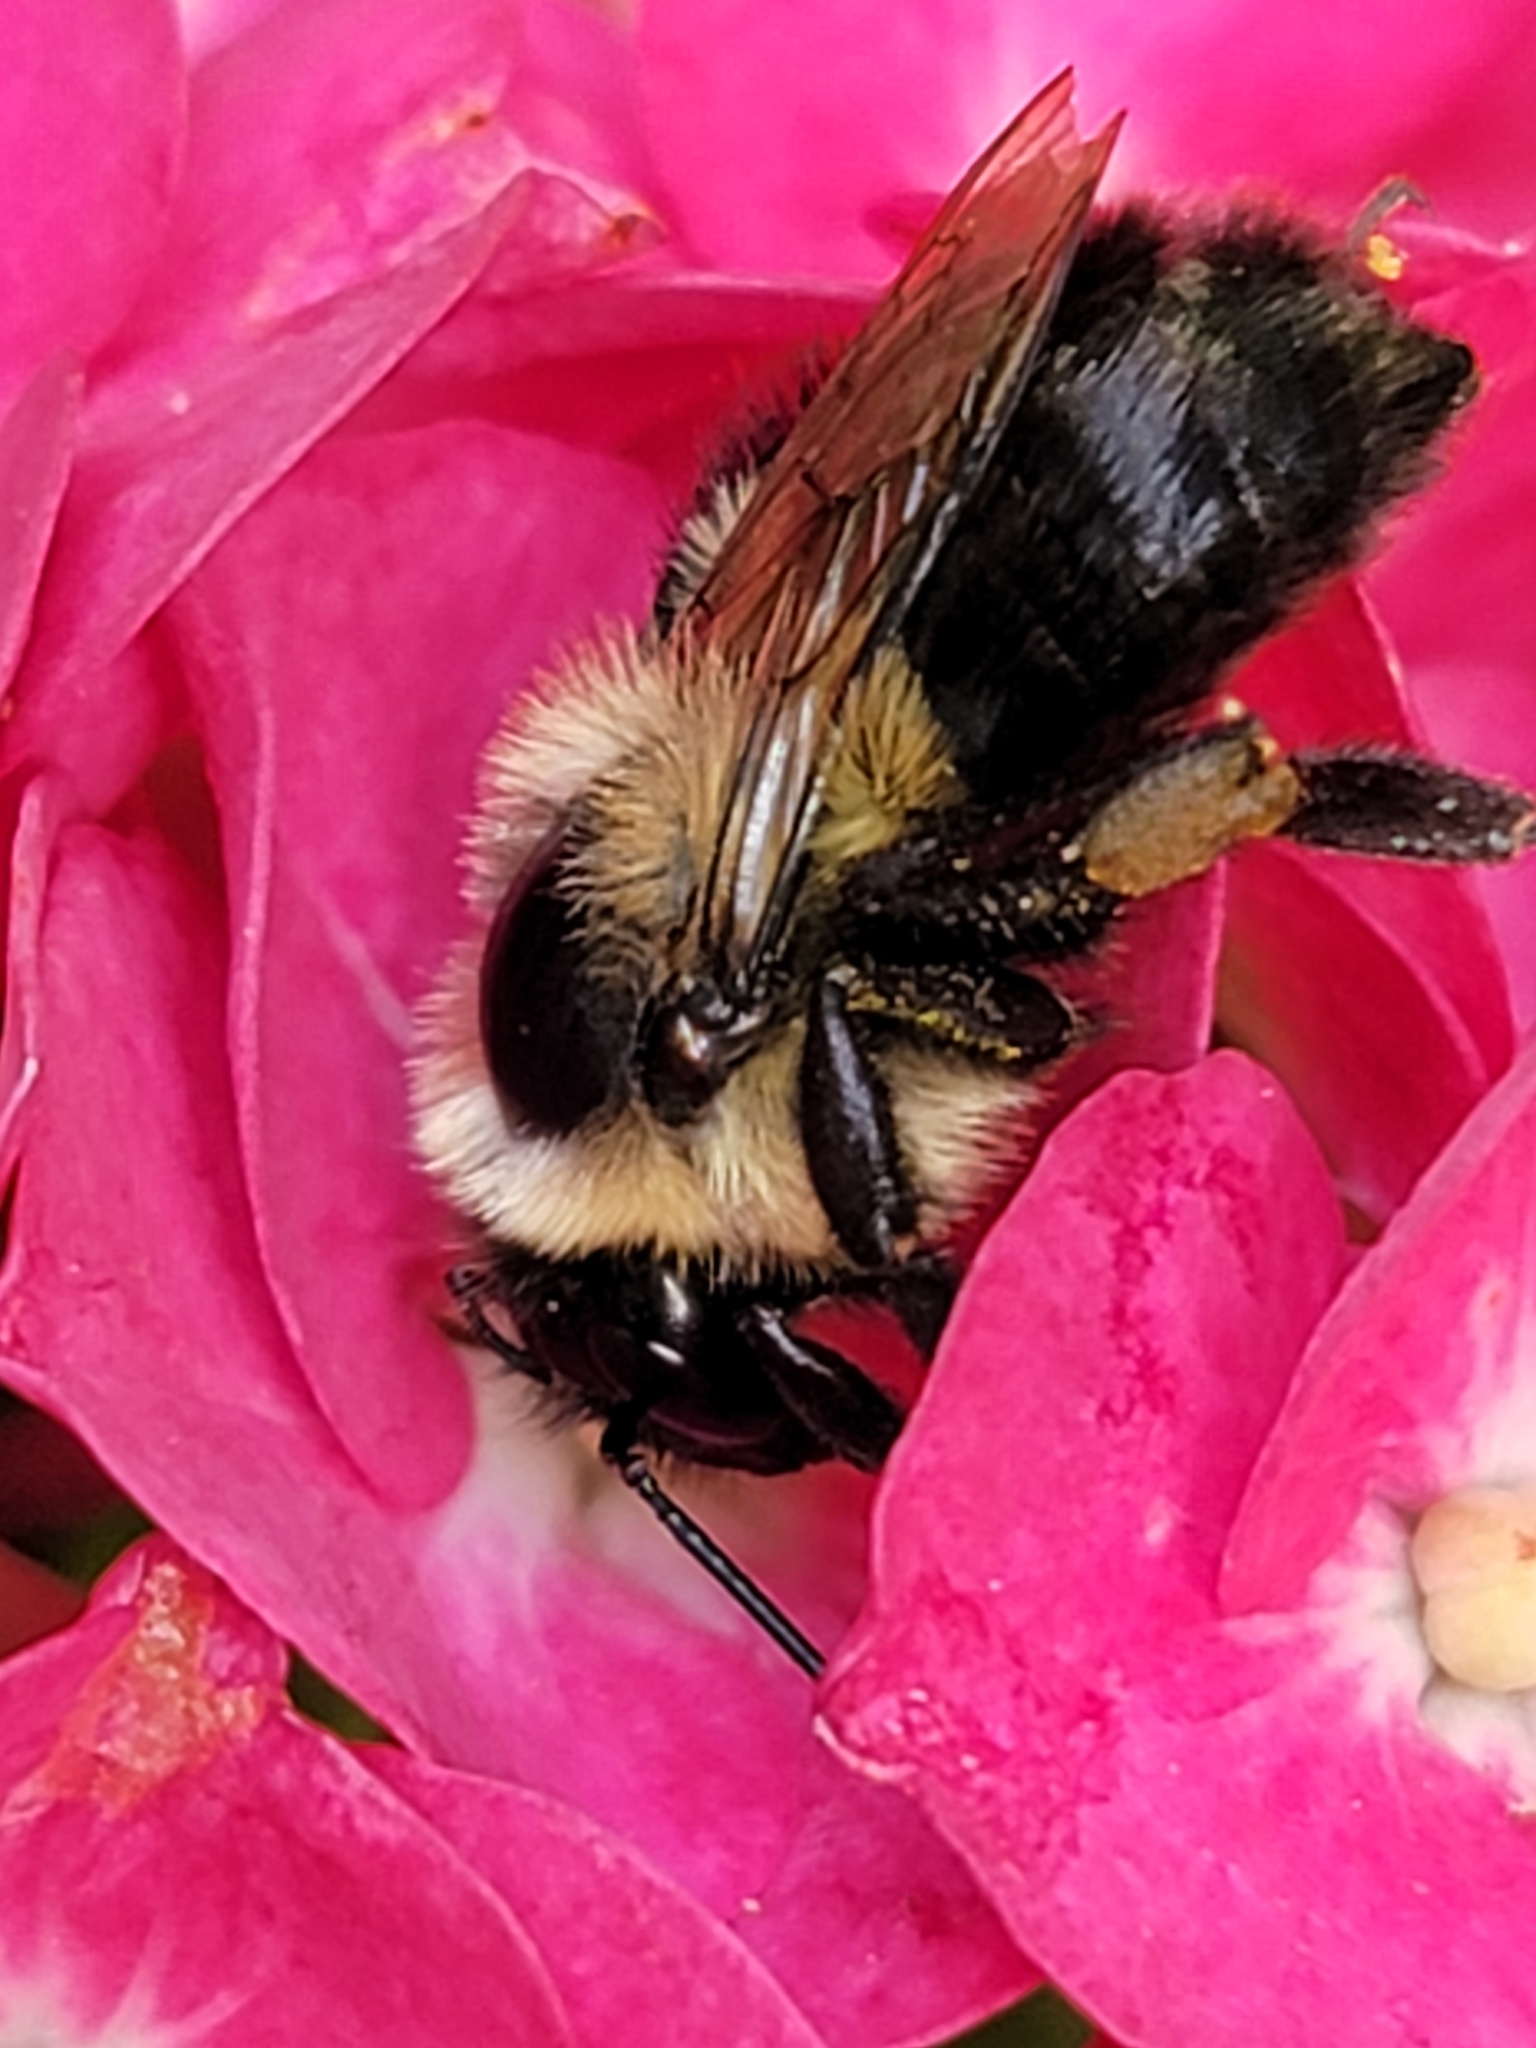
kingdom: Animalia
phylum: Arthropoda
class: Insecta
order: Hymenoptera
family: Apidae
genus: Bombus
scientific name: Bombus impatiens
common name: Common eastern bumble bee
